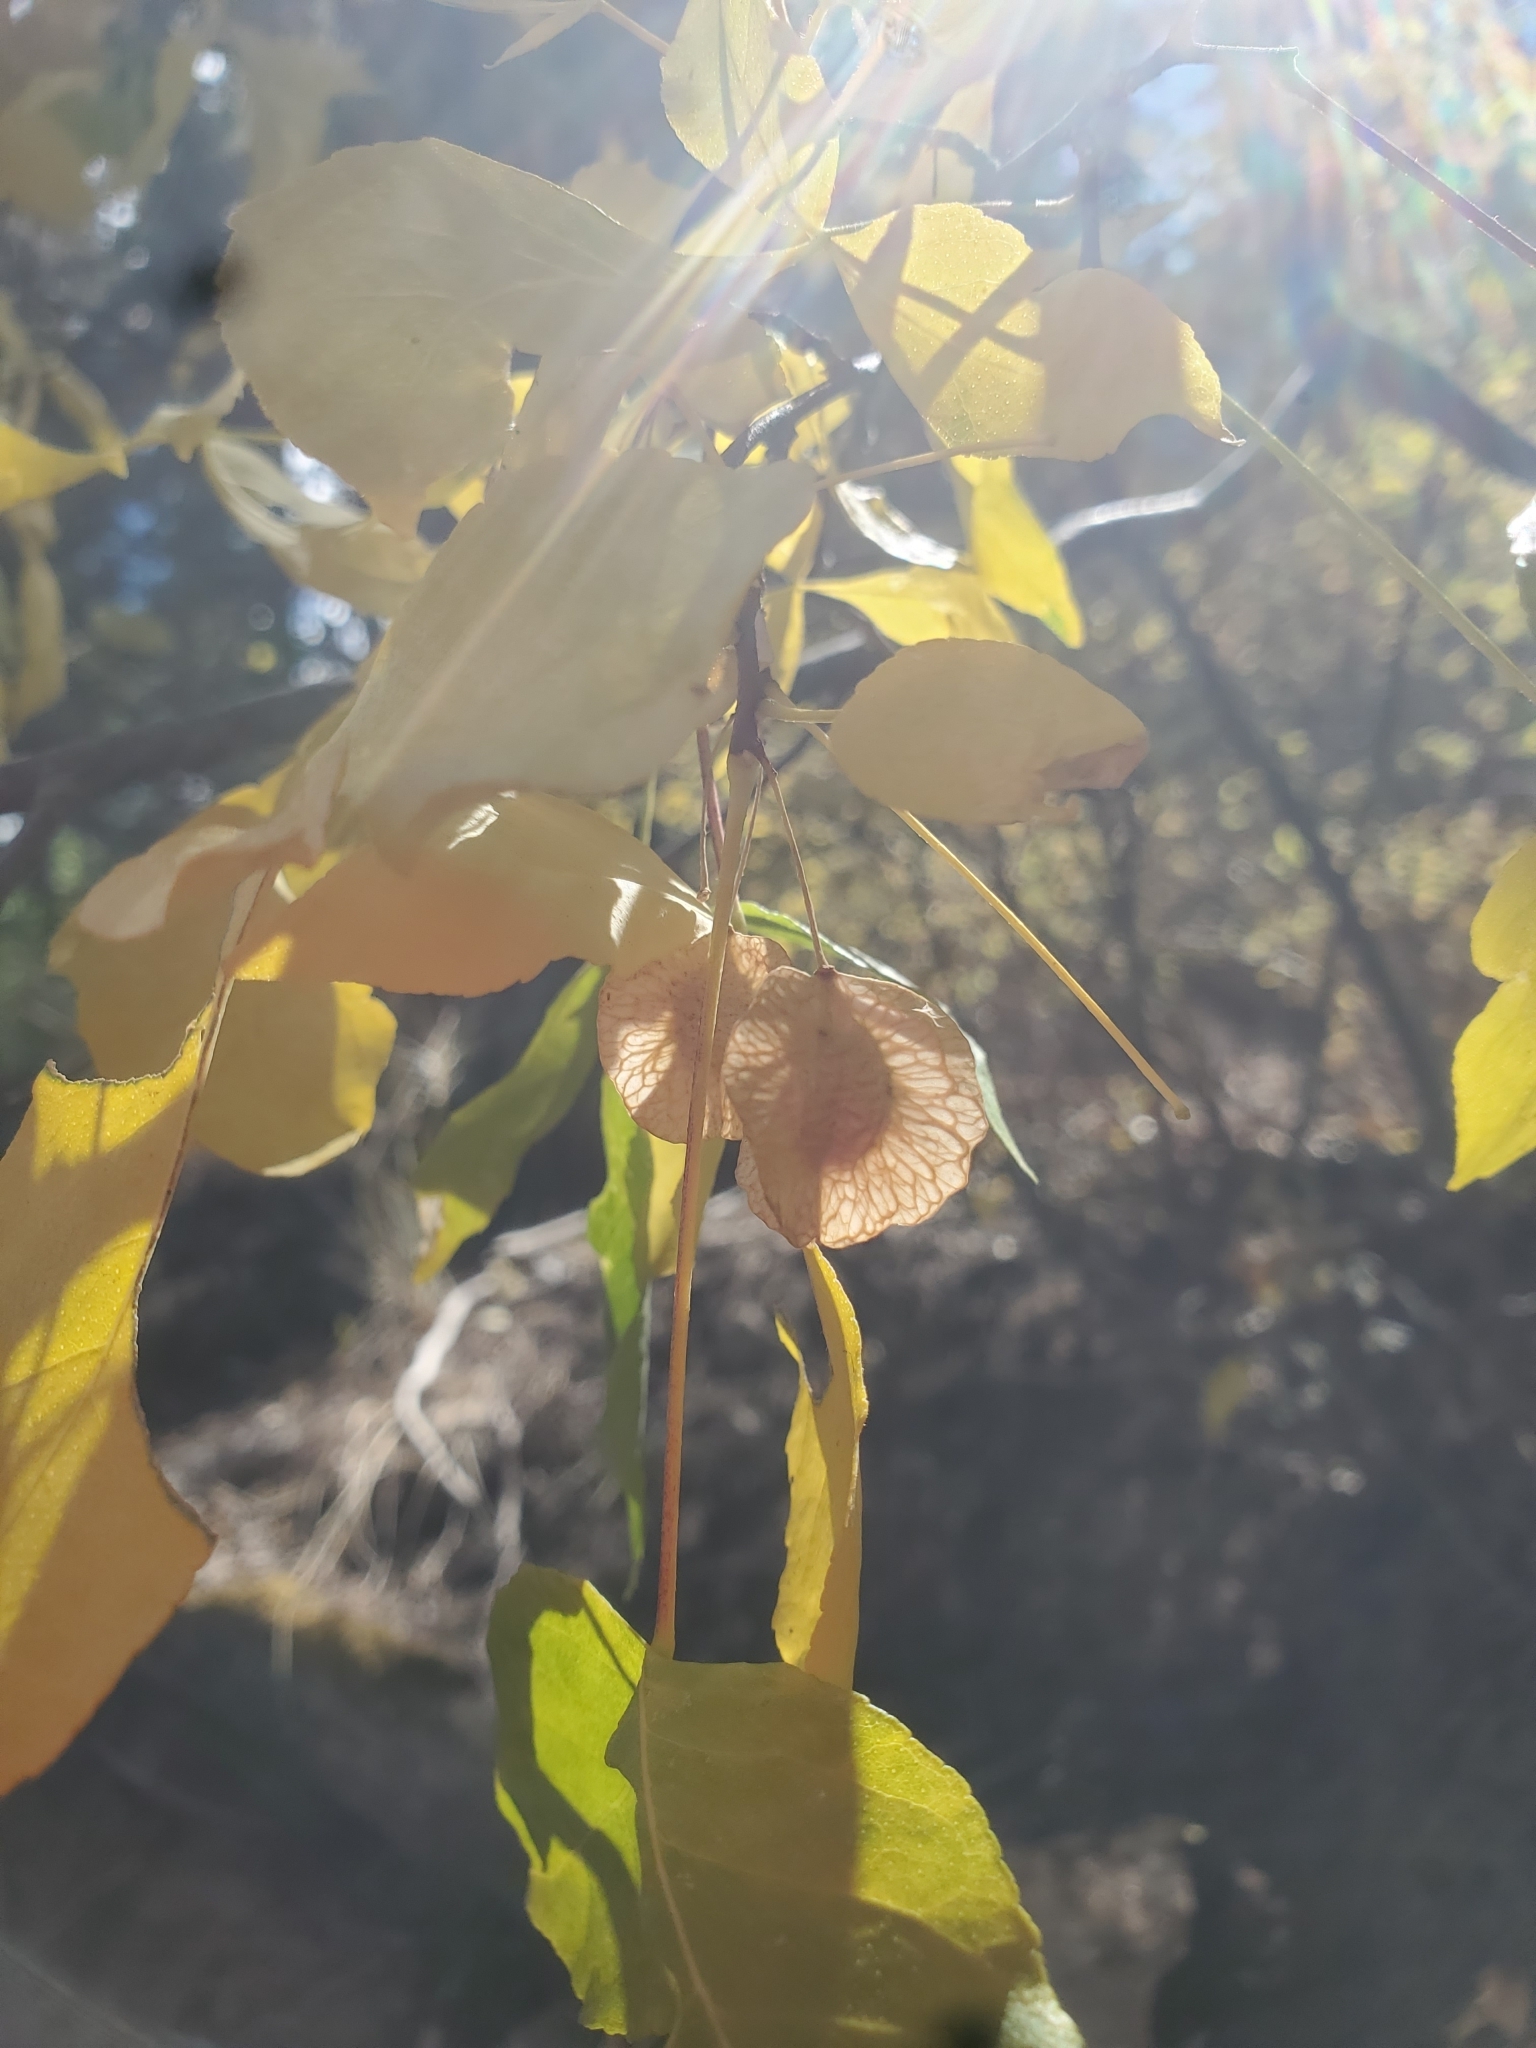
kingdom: Plantae
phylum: Tracheophyta
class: Magnoliopsida
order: Sapindales
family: Rutaceae
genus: Ptelea
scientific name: Ptelea trifoliata
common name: Common hop-tree
